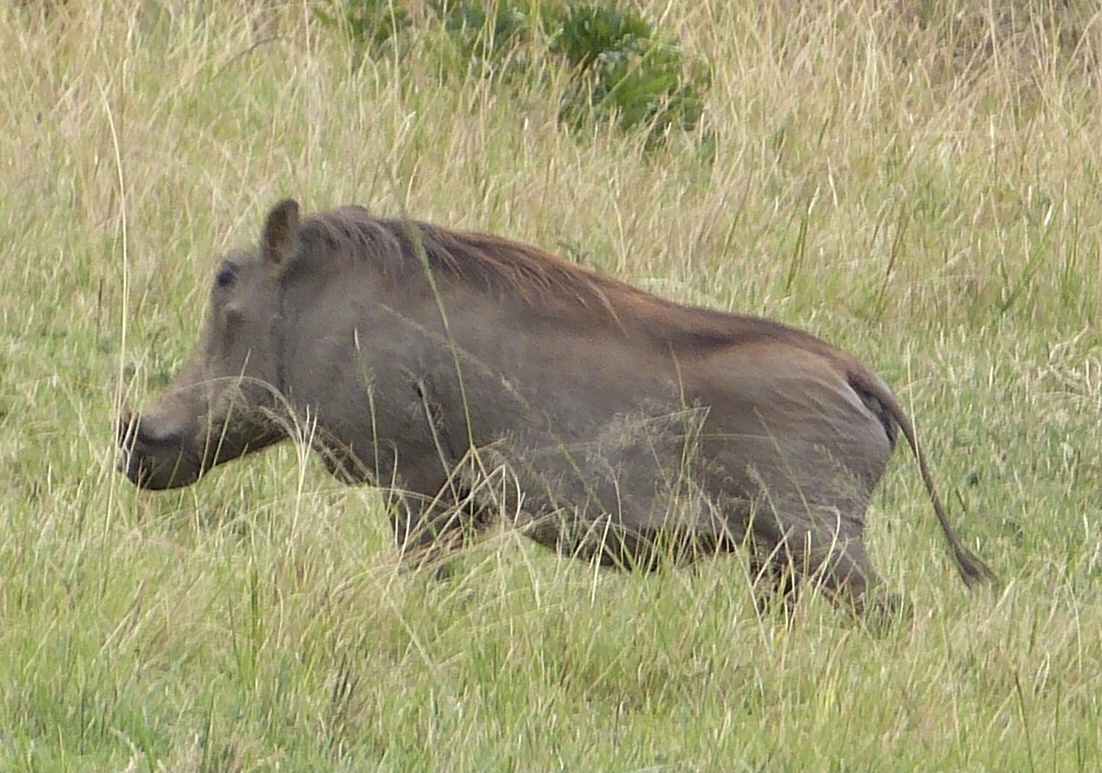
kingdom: Animalia
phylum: Chordata
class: Mammalia
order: Artiodactyla
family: Suidae
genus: Phacochoerus
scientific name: Phacochoerus africanus
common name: Common warthog
